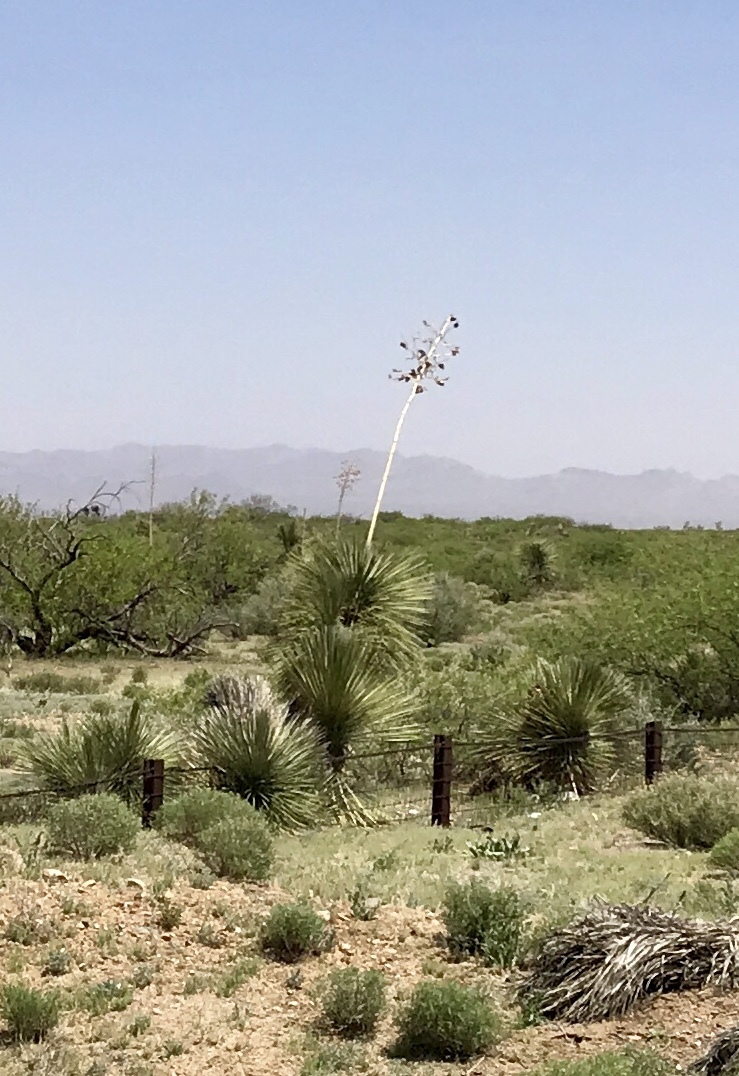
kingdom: Plantae
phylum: Tracheophyta
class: Liliopsida
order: Asparagales
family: Asparagaceae
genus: Yucca
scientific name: Yucca elata
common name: Palmella
